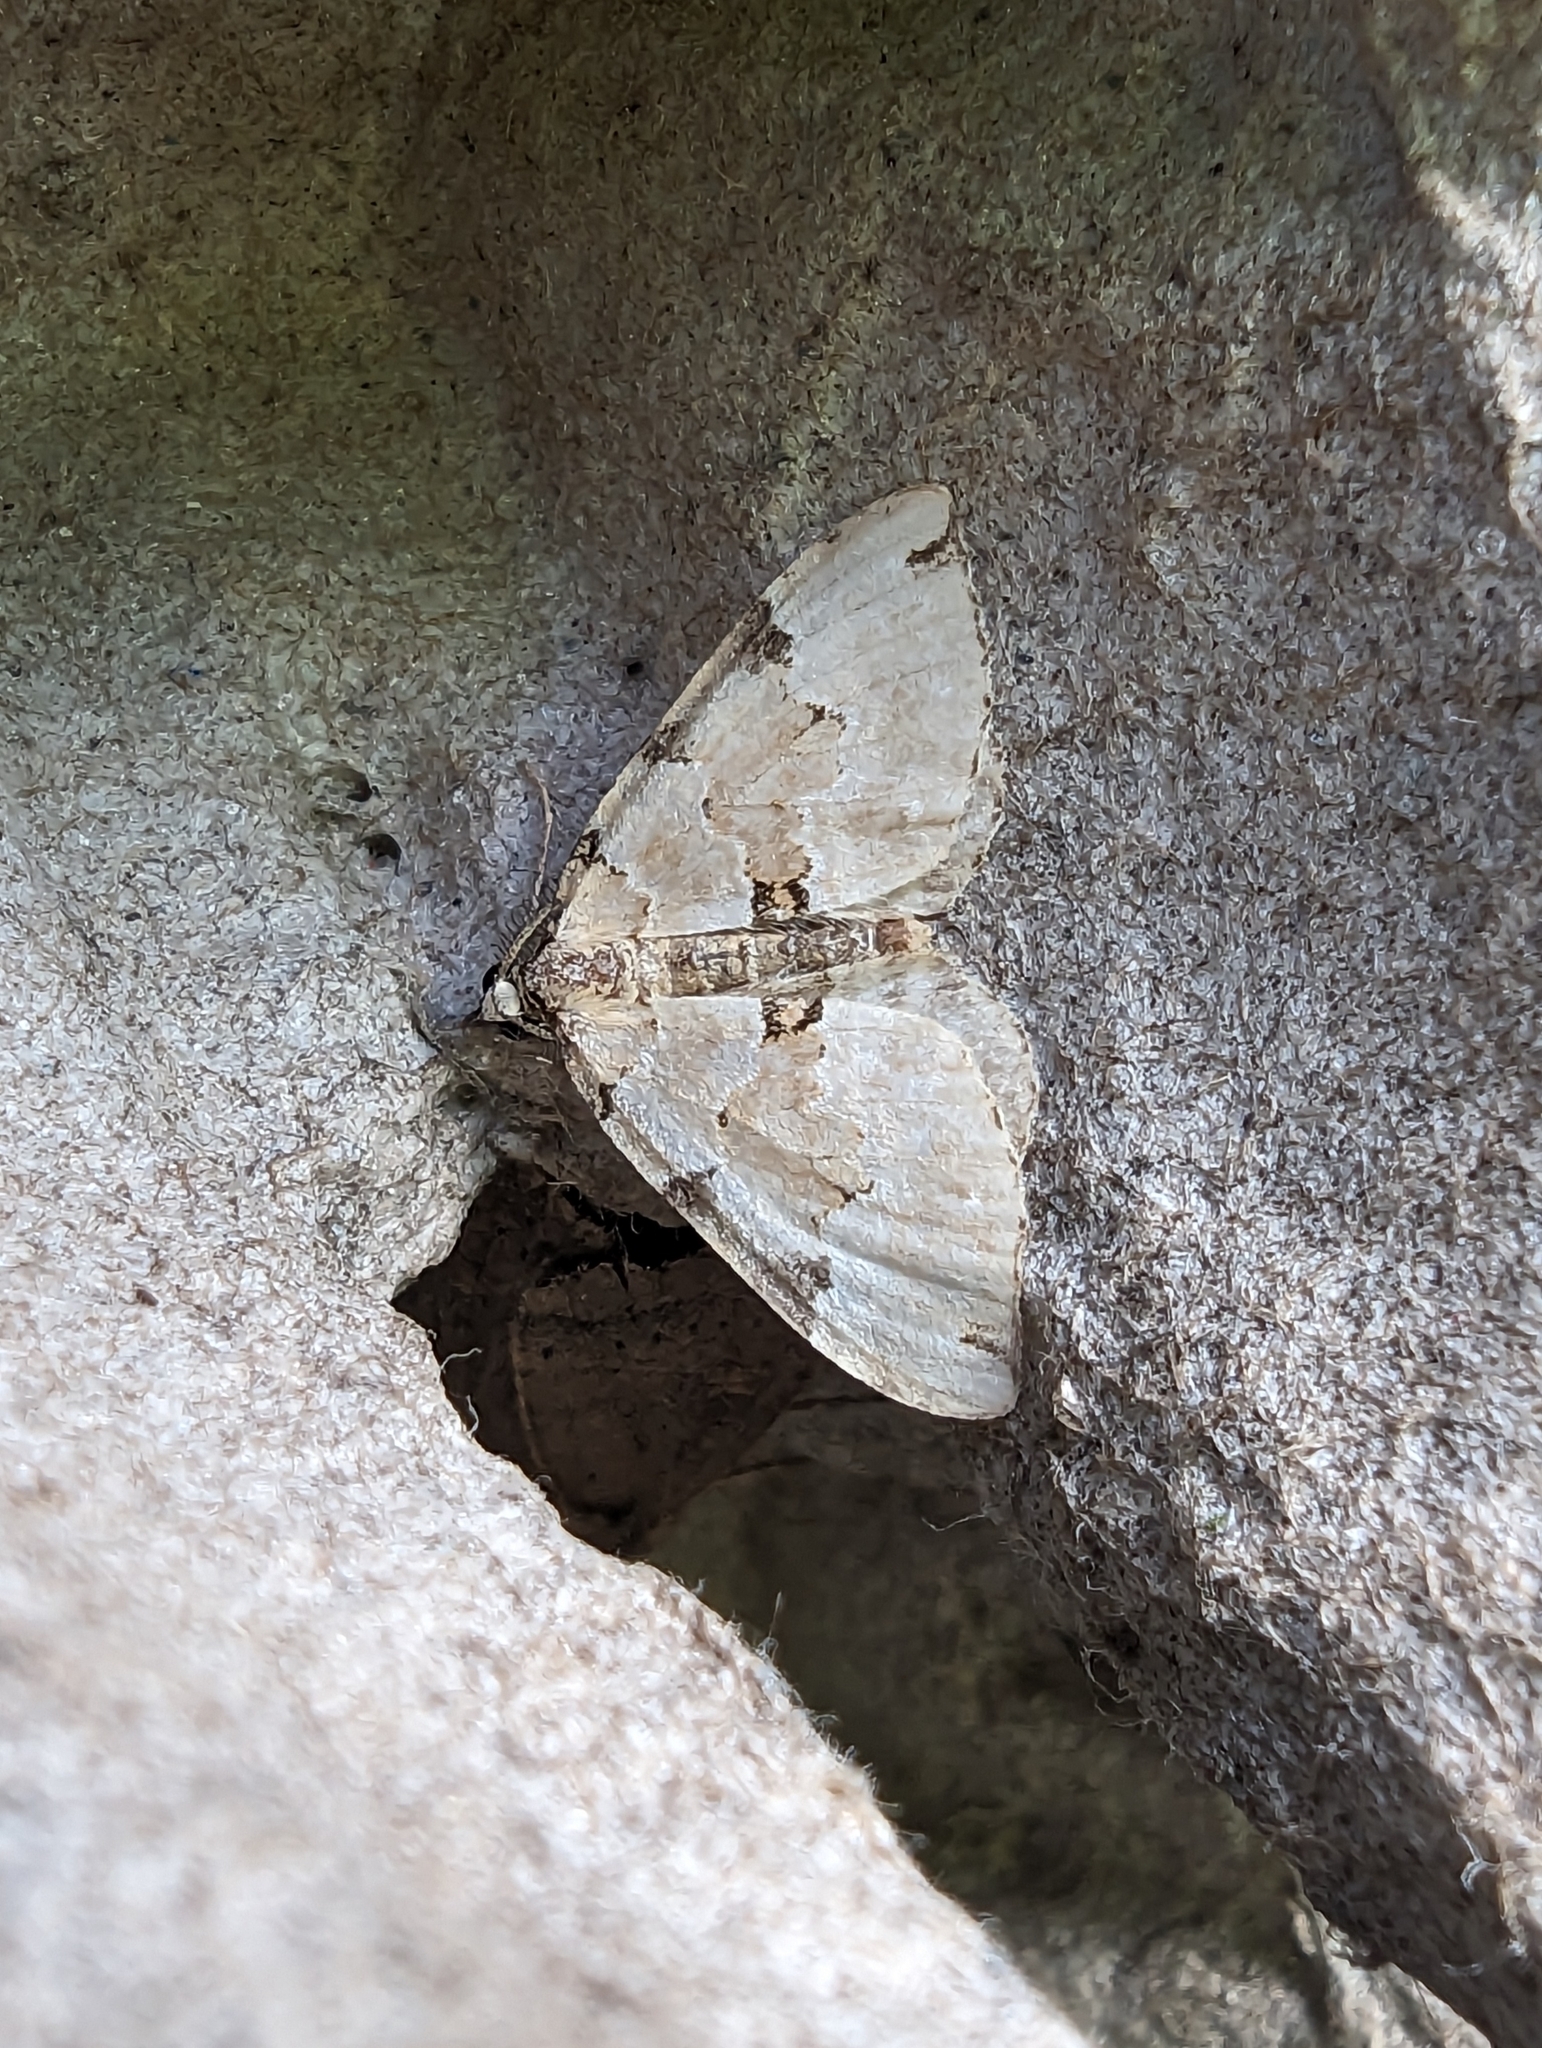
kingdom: Animalia
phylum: Arthropoda
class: Insecta
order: Lepidoptera
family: Geometridae
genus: Colostygia
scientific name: Colostygia pectinataria
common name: Green carpet
